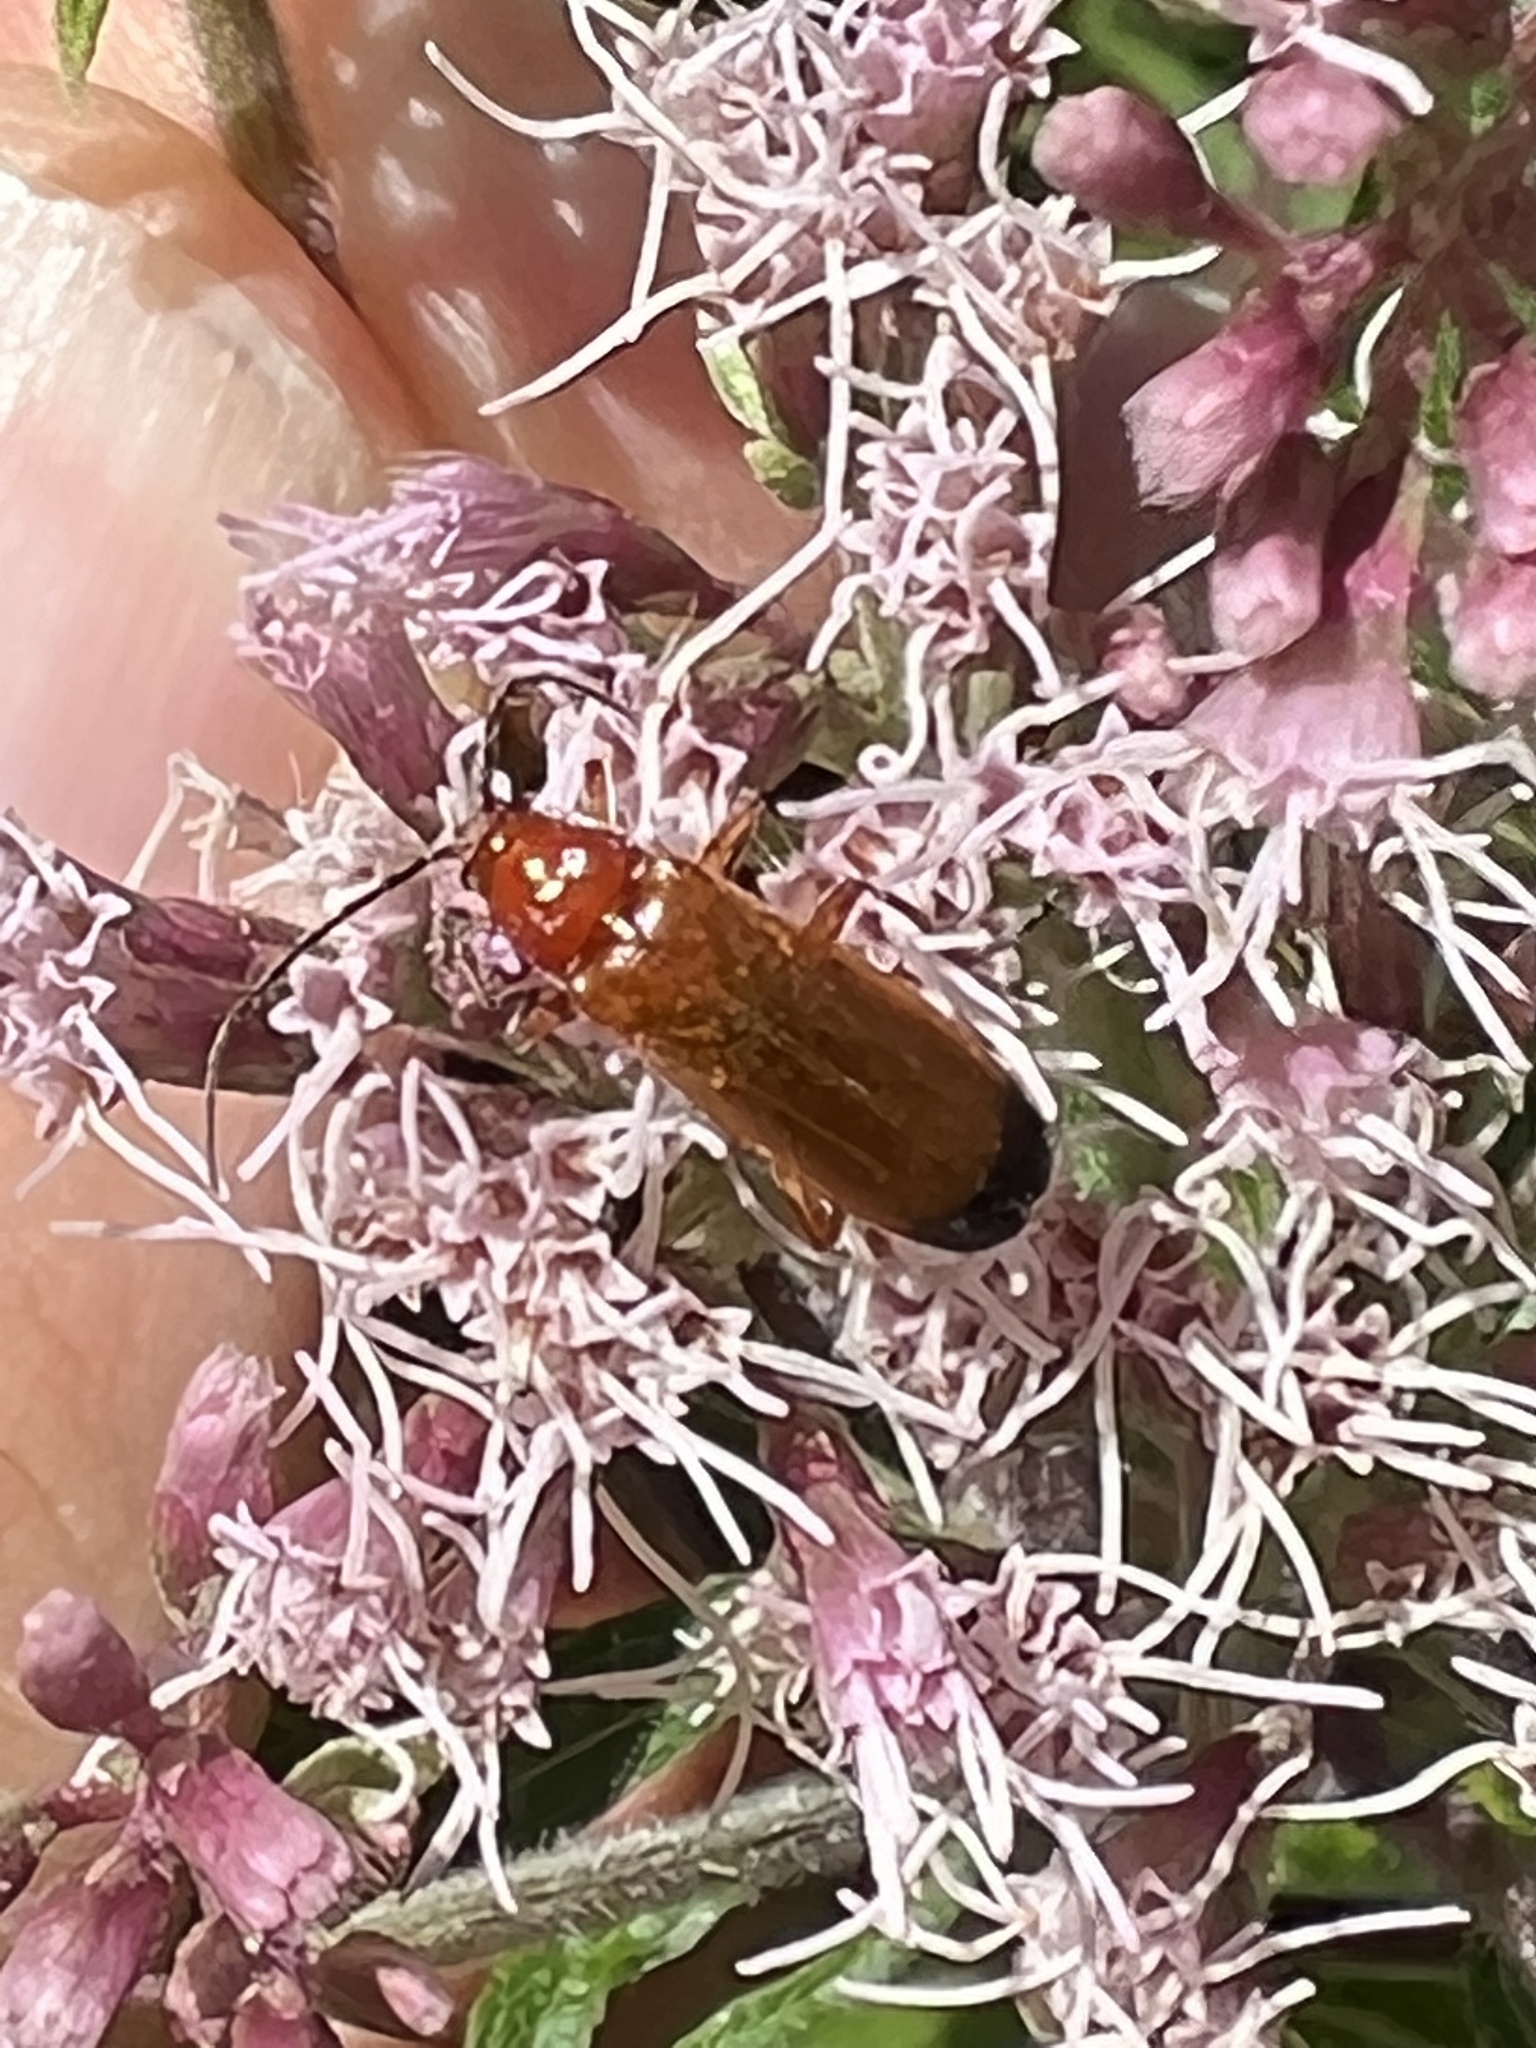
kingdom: Animalia
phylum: Arthropoda
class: Insecta
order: Coleoptera
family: Cantharidae
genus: Rhagonycha
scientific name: Rhagonycha fulva
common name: Common red soldier beetle
